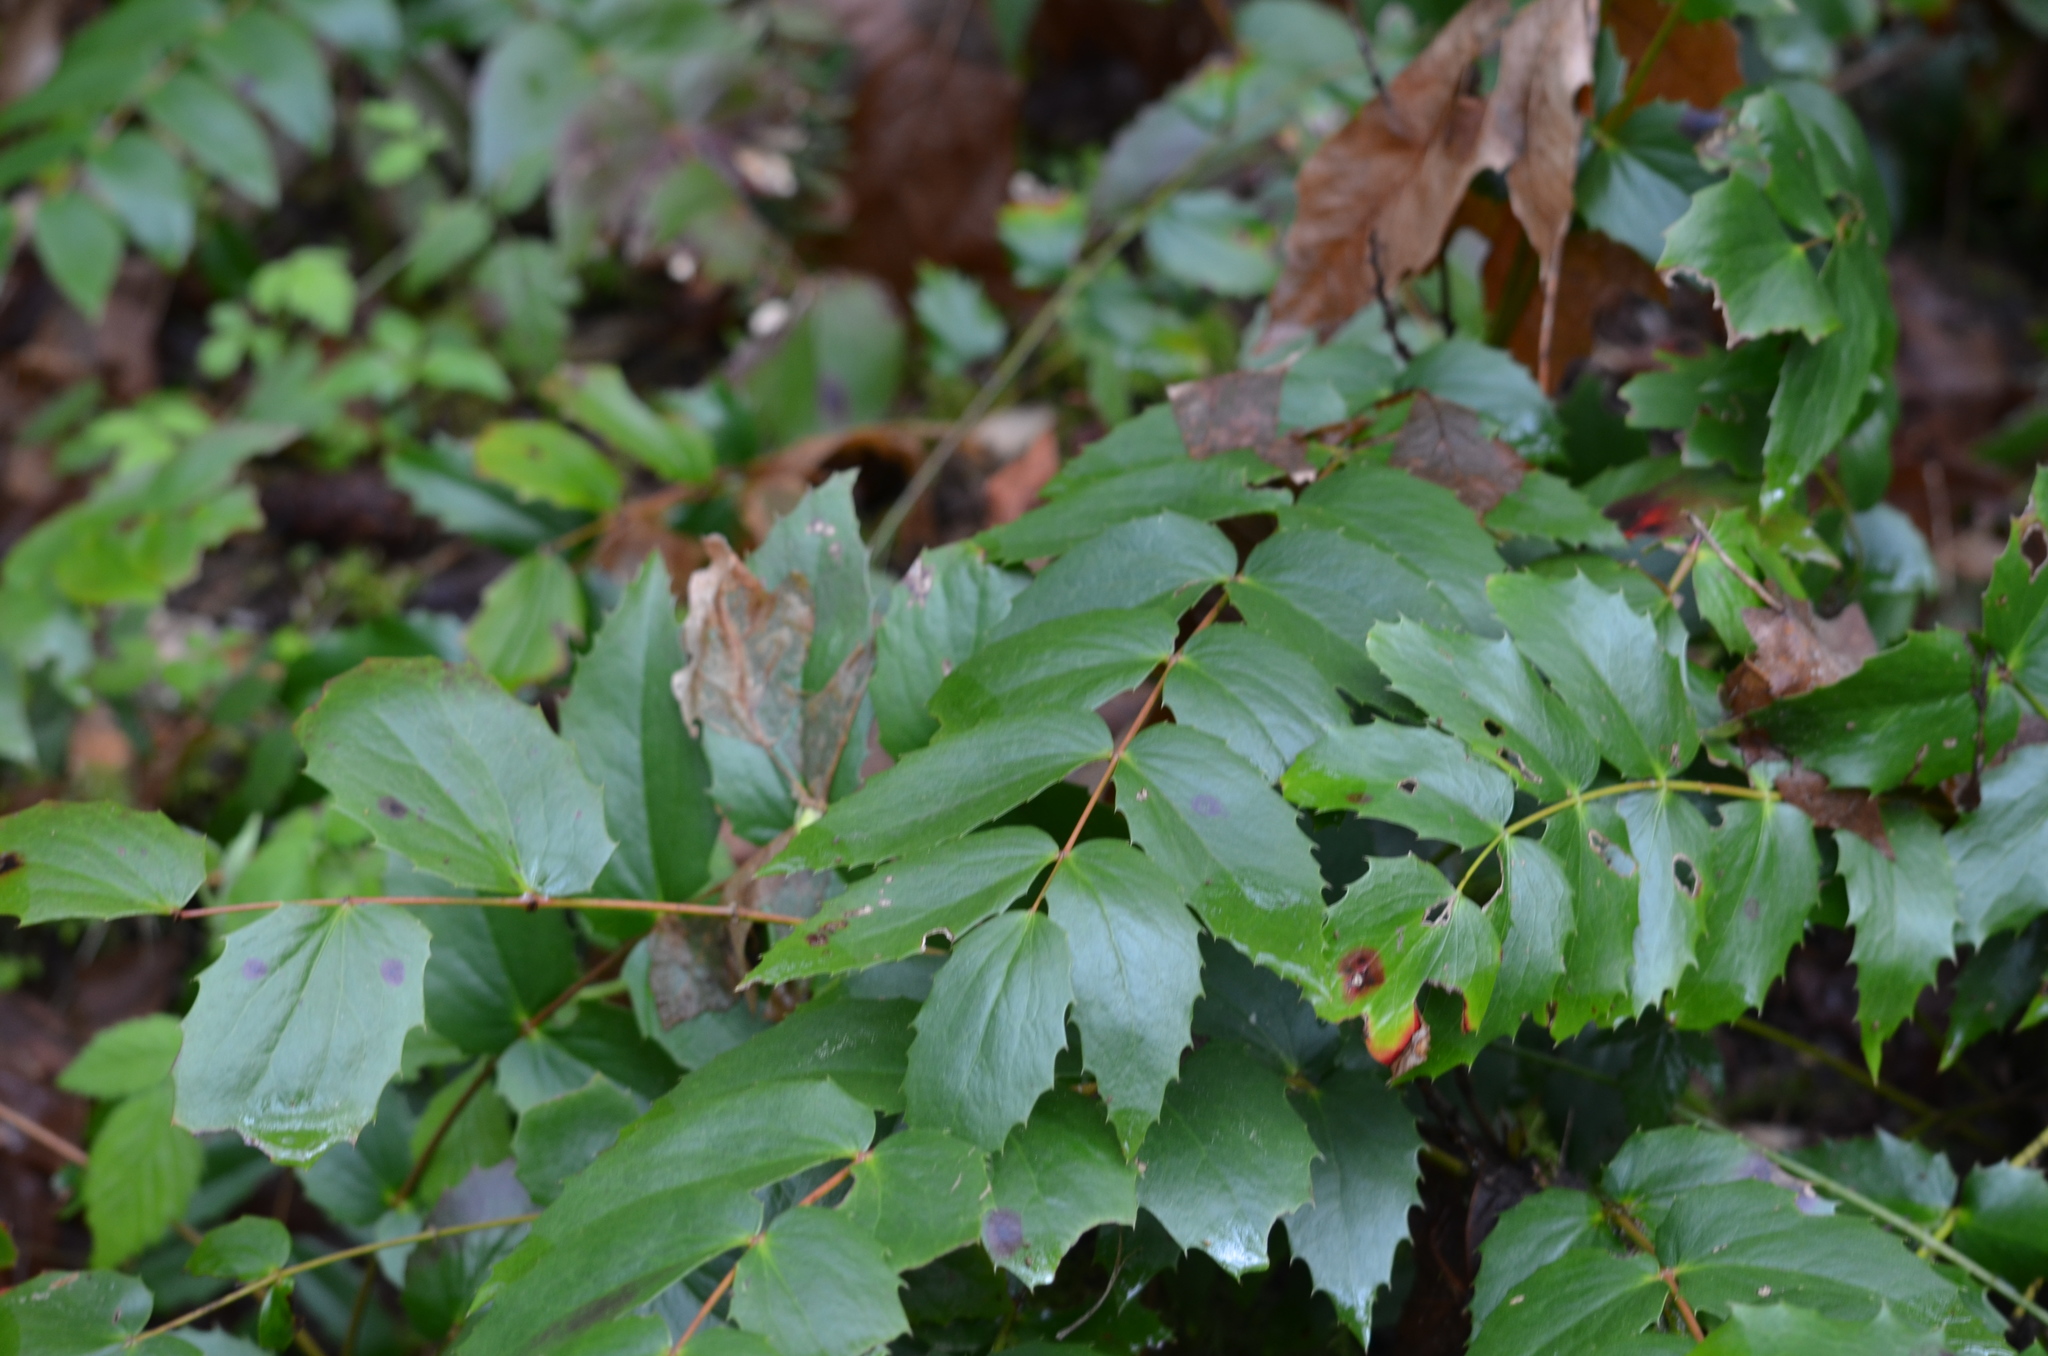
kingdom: Plantae
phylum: Tracheophyta
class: Magnoliopsida
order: Ranunculales
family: Berberidaceae
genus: Mahonia
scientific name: Mahonia nervosa
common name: Cascade oregon-grape
